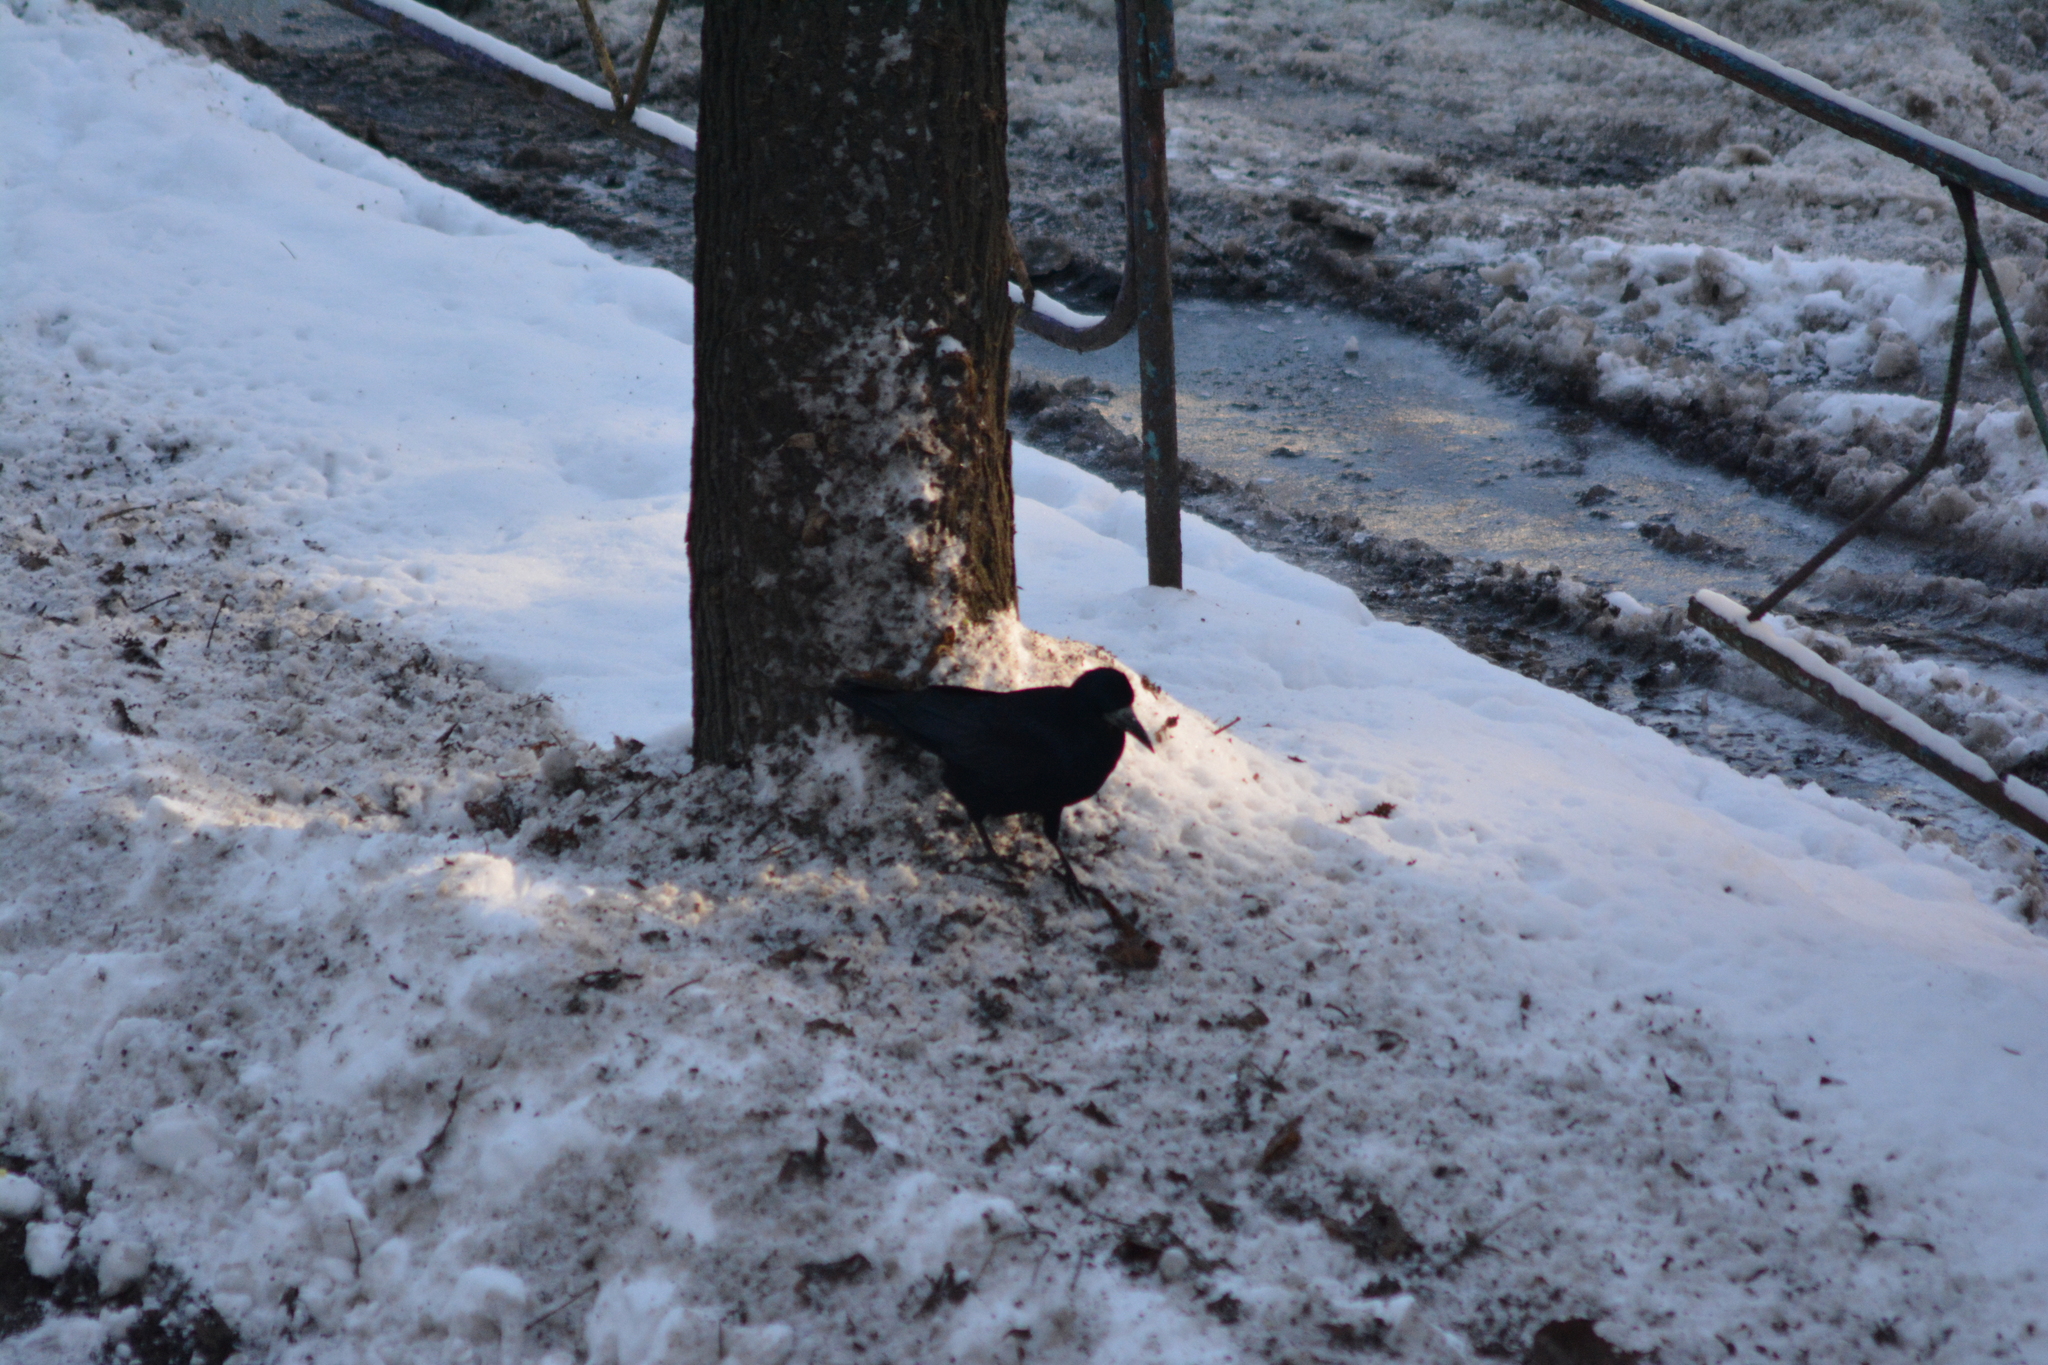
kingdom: Animalia
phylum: Chordata
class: Aves
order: Passeriformes
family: Corvidae
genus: Corvus
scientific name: Corvus frugilegus
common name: Rook
